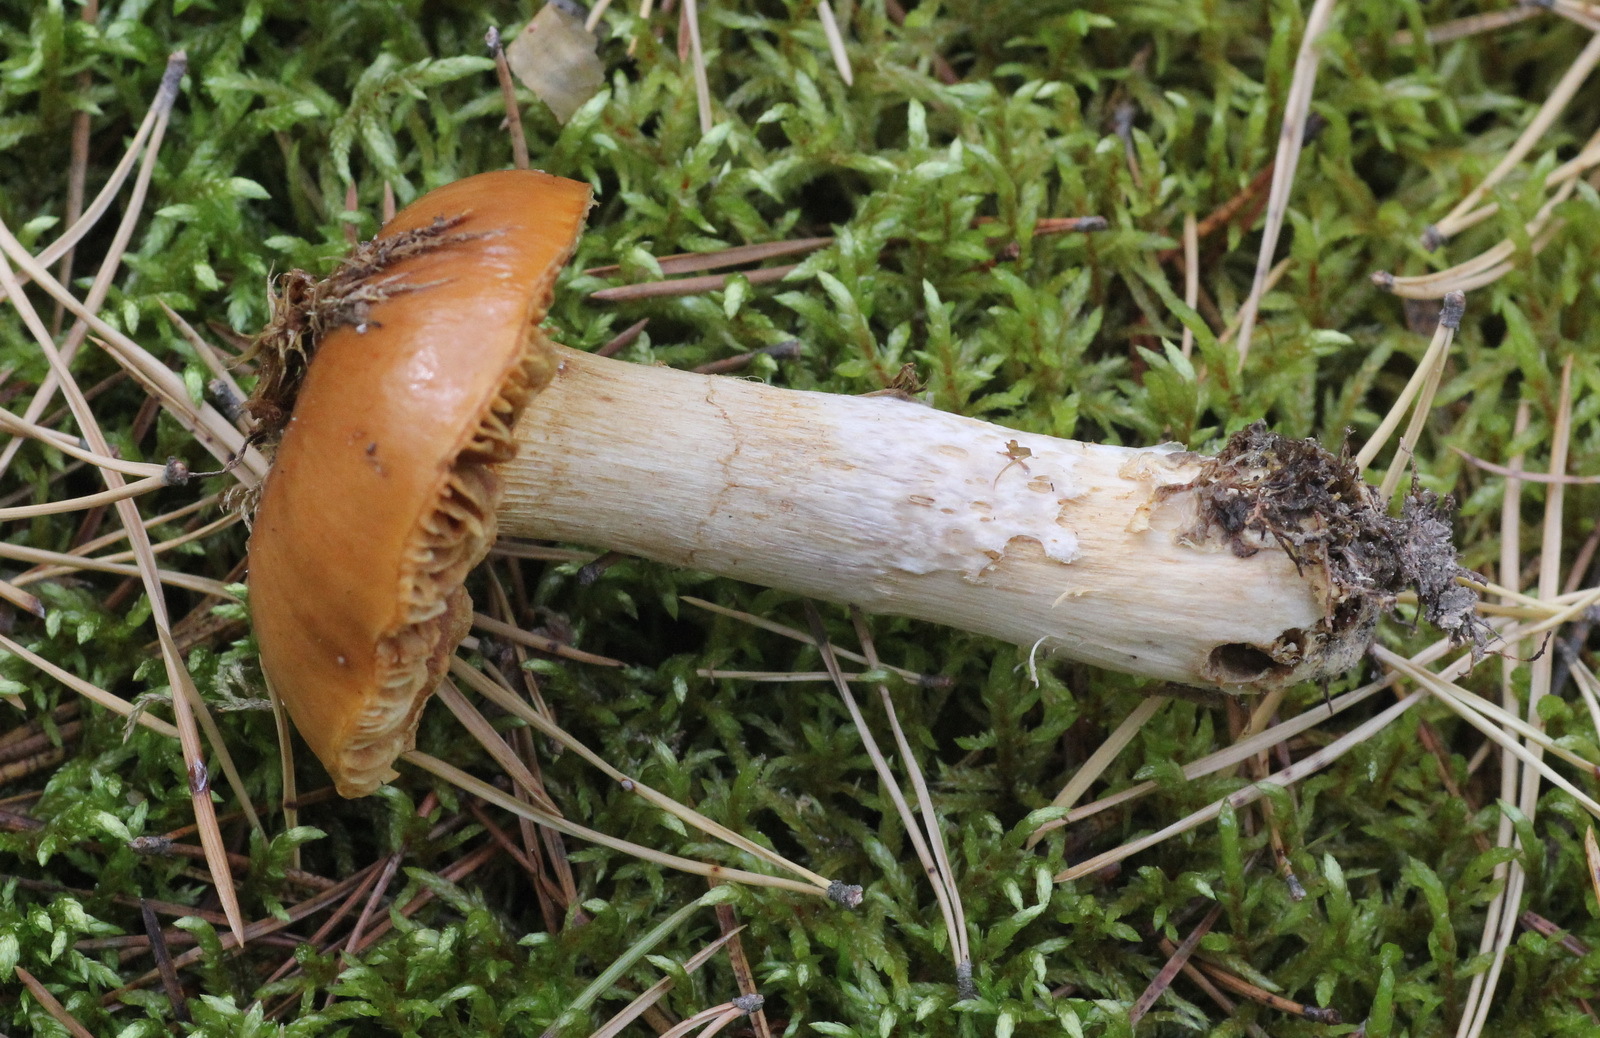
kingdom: Fungi
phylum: Basidiomycota
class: Agaricomycetes
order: Agaricales
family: Cortinariaceae
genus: Cortinarius
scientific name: Cortinarius mucosus
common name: Orange webcap
